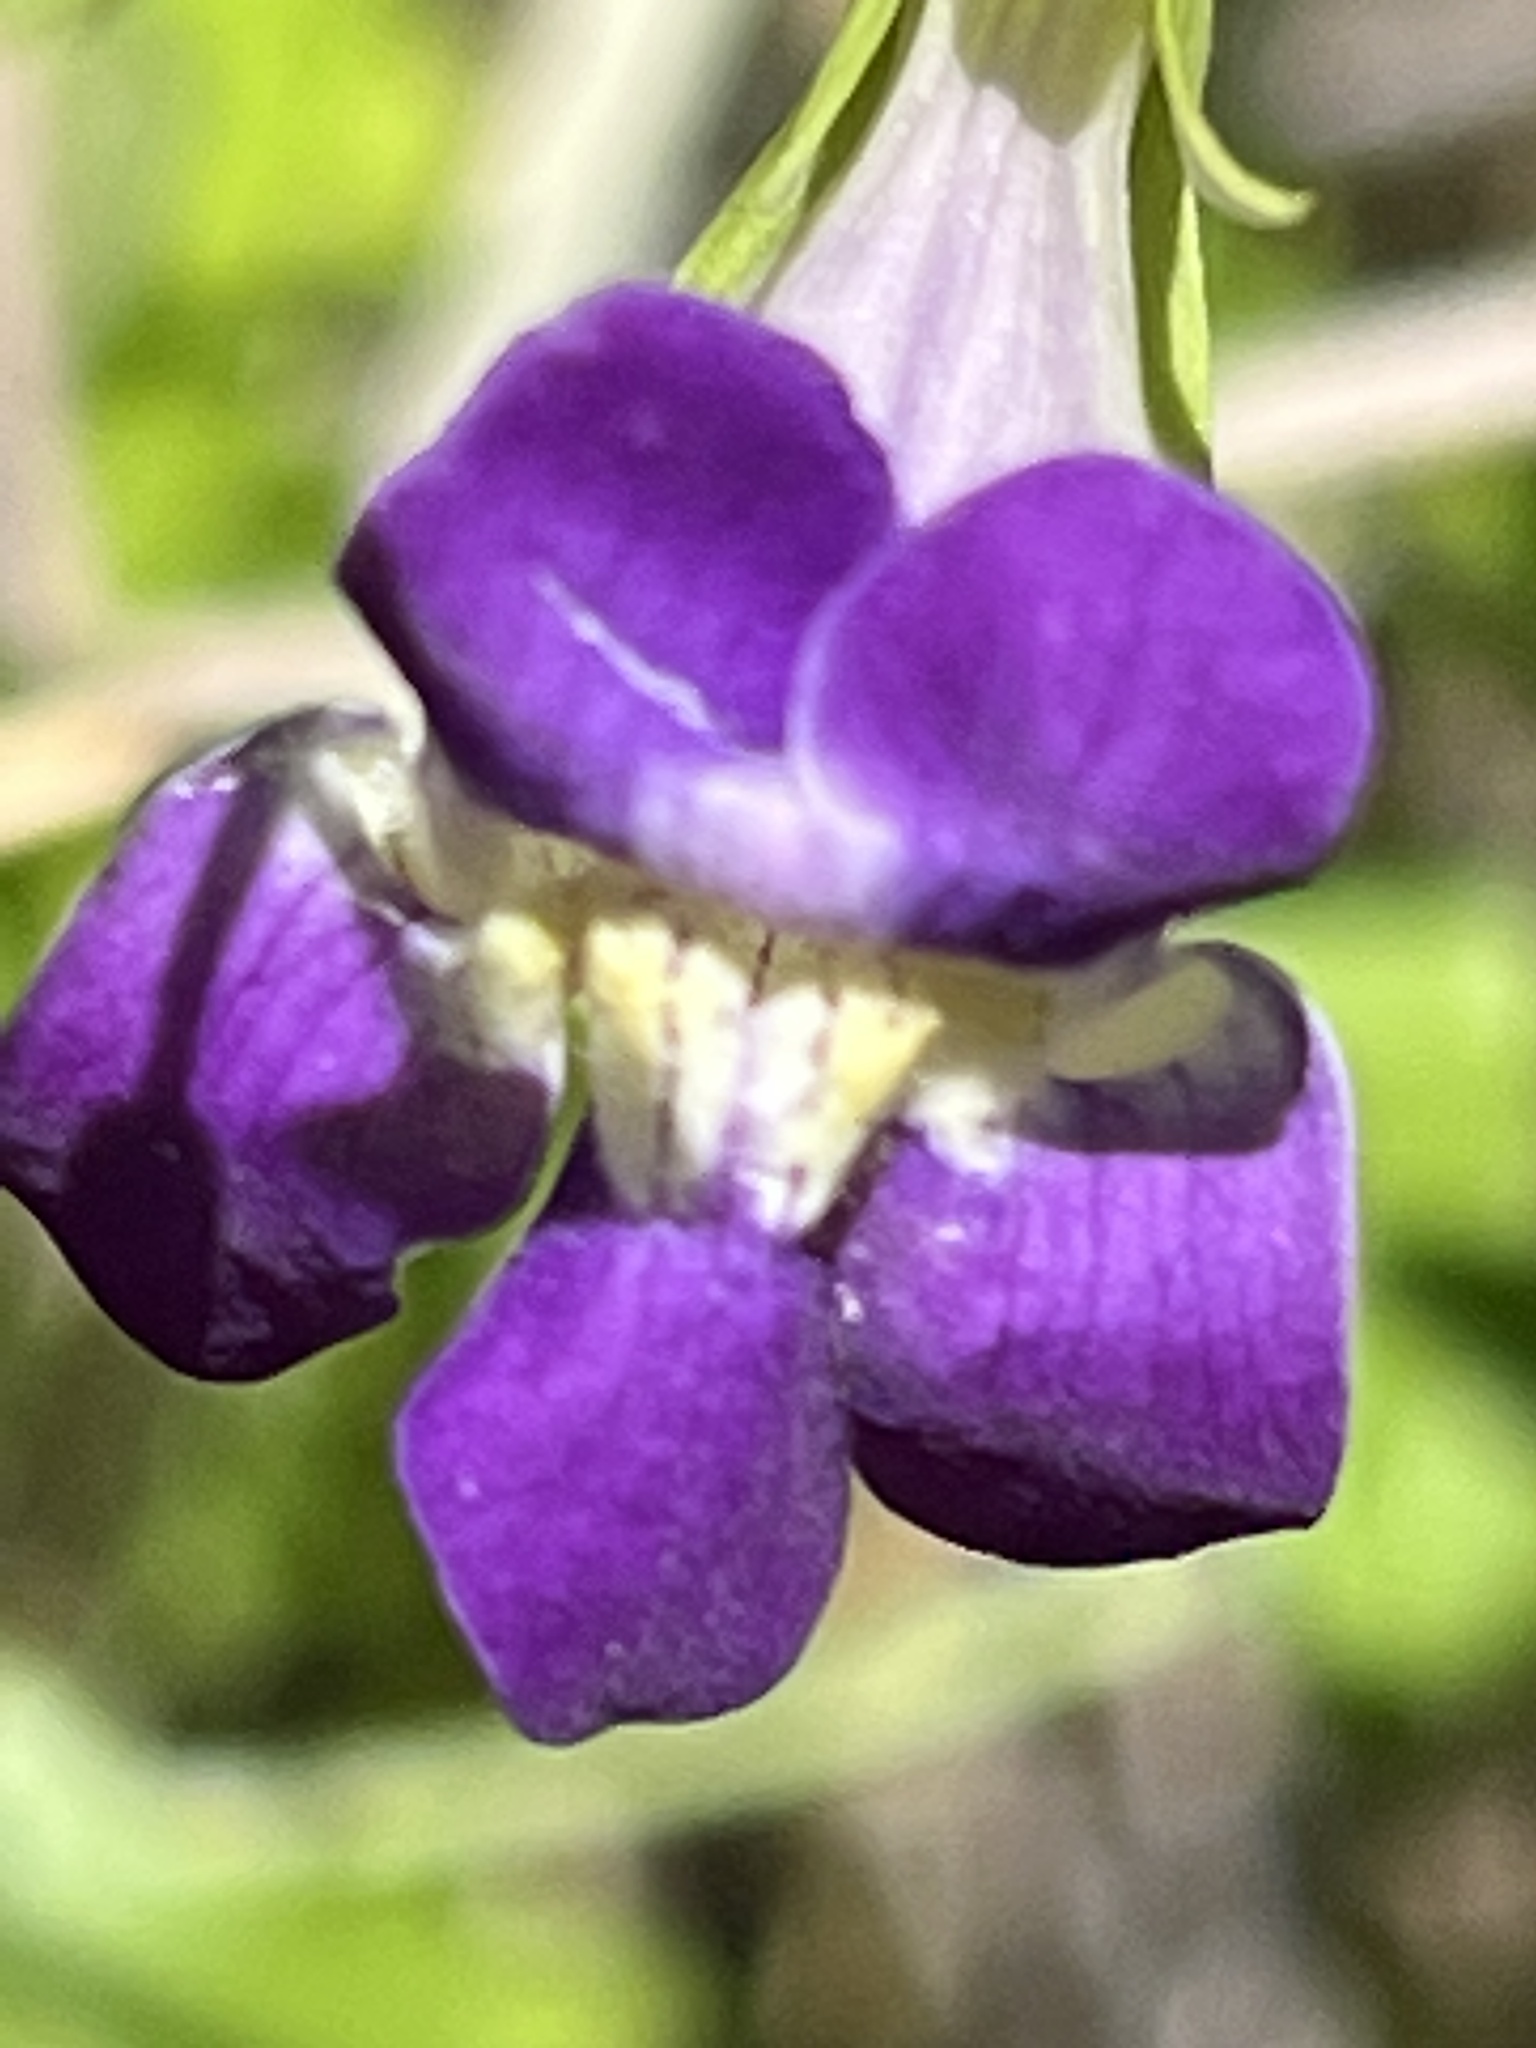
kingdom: Plantae
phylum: Tracheophyta
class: Magnoliopsida
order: Lamiales
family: Plantaginaceae
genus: Maurandella
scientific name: Maurandella antirrhiniflora
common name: Violet twining-snapdragon
